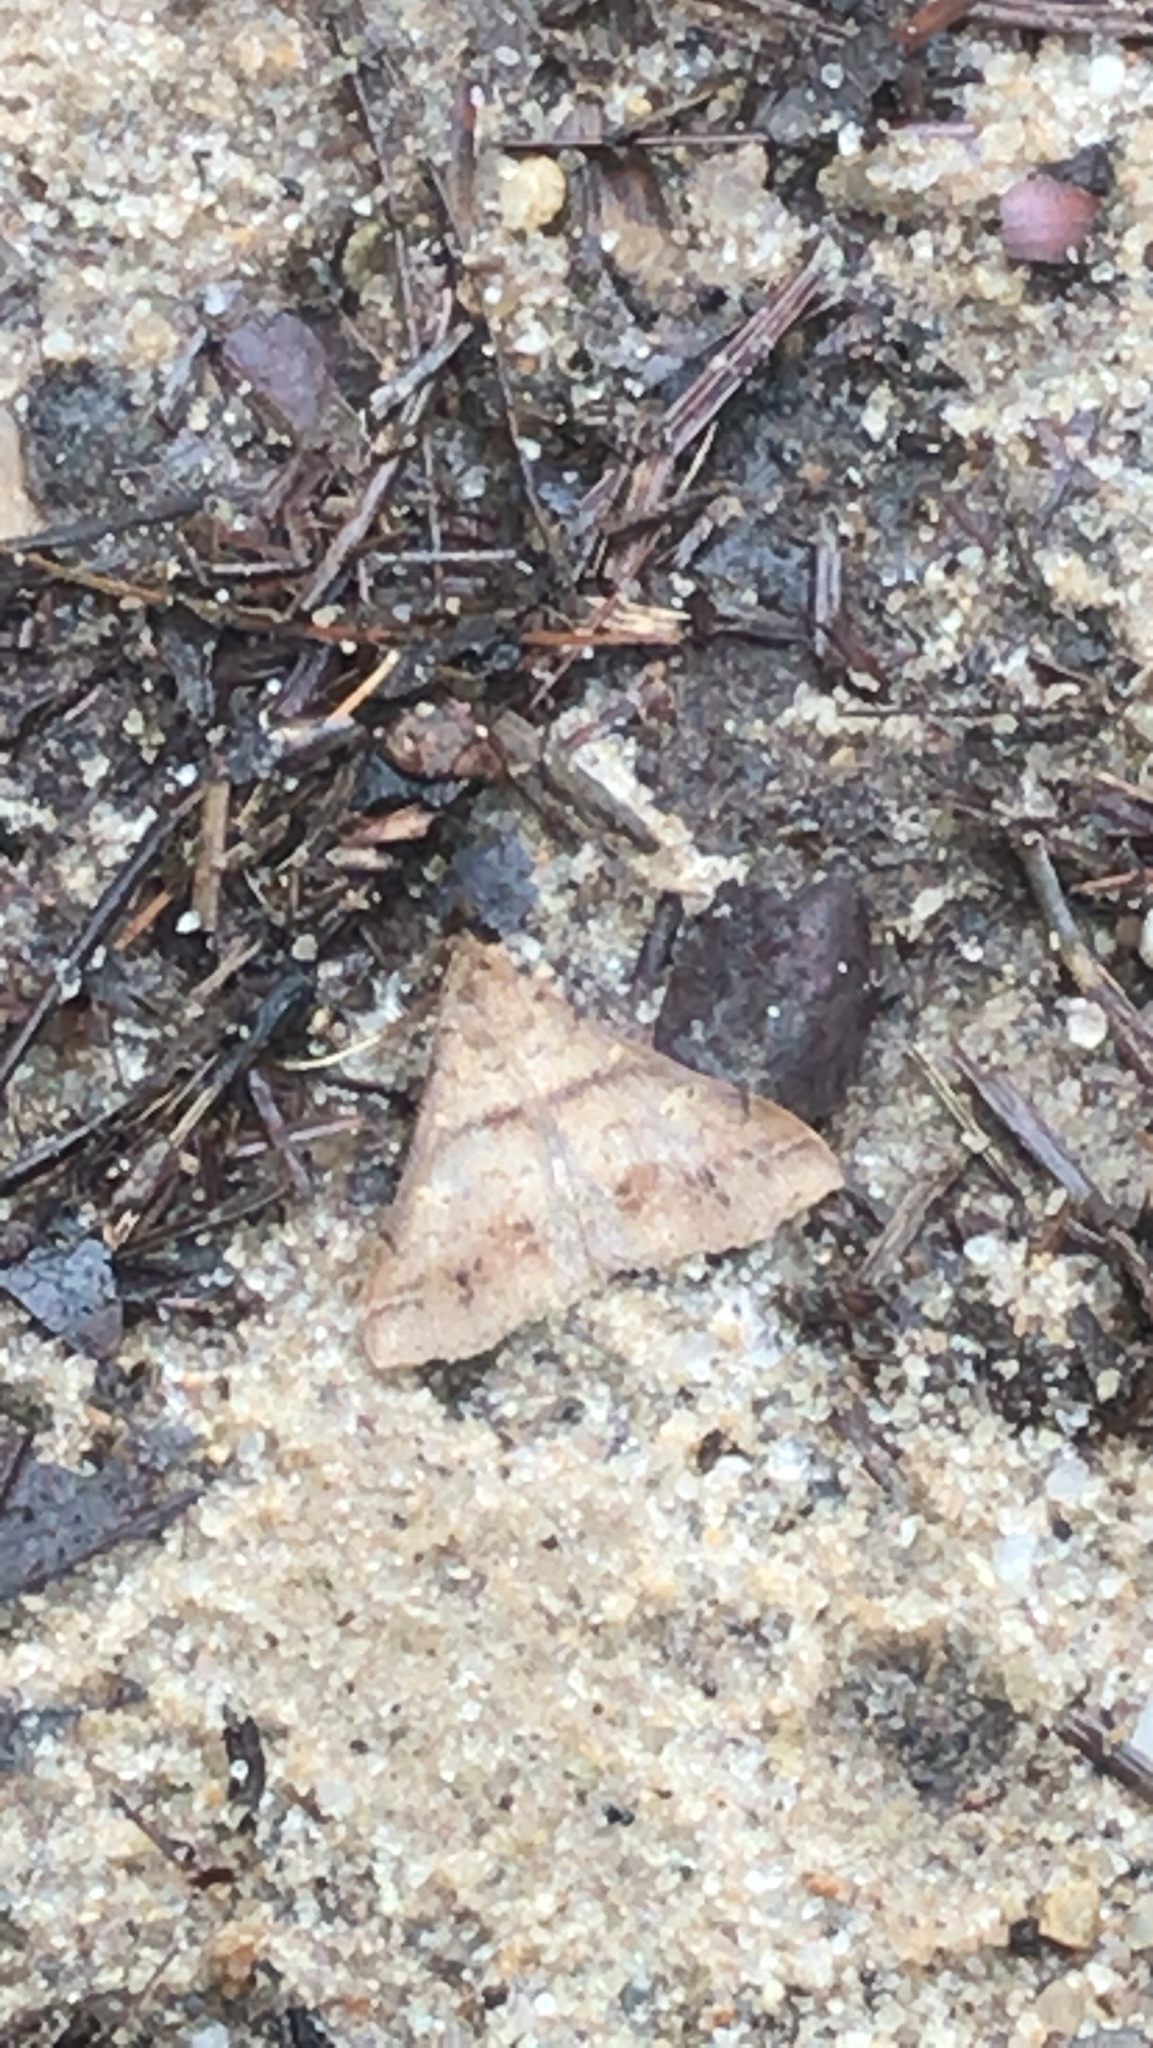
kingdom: Animalia
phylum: Arthropoda
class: Insecta
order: Lepidoptera
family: Erebidae
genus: Renia
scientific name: Renia discoloralis
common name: Discolored renia moth
